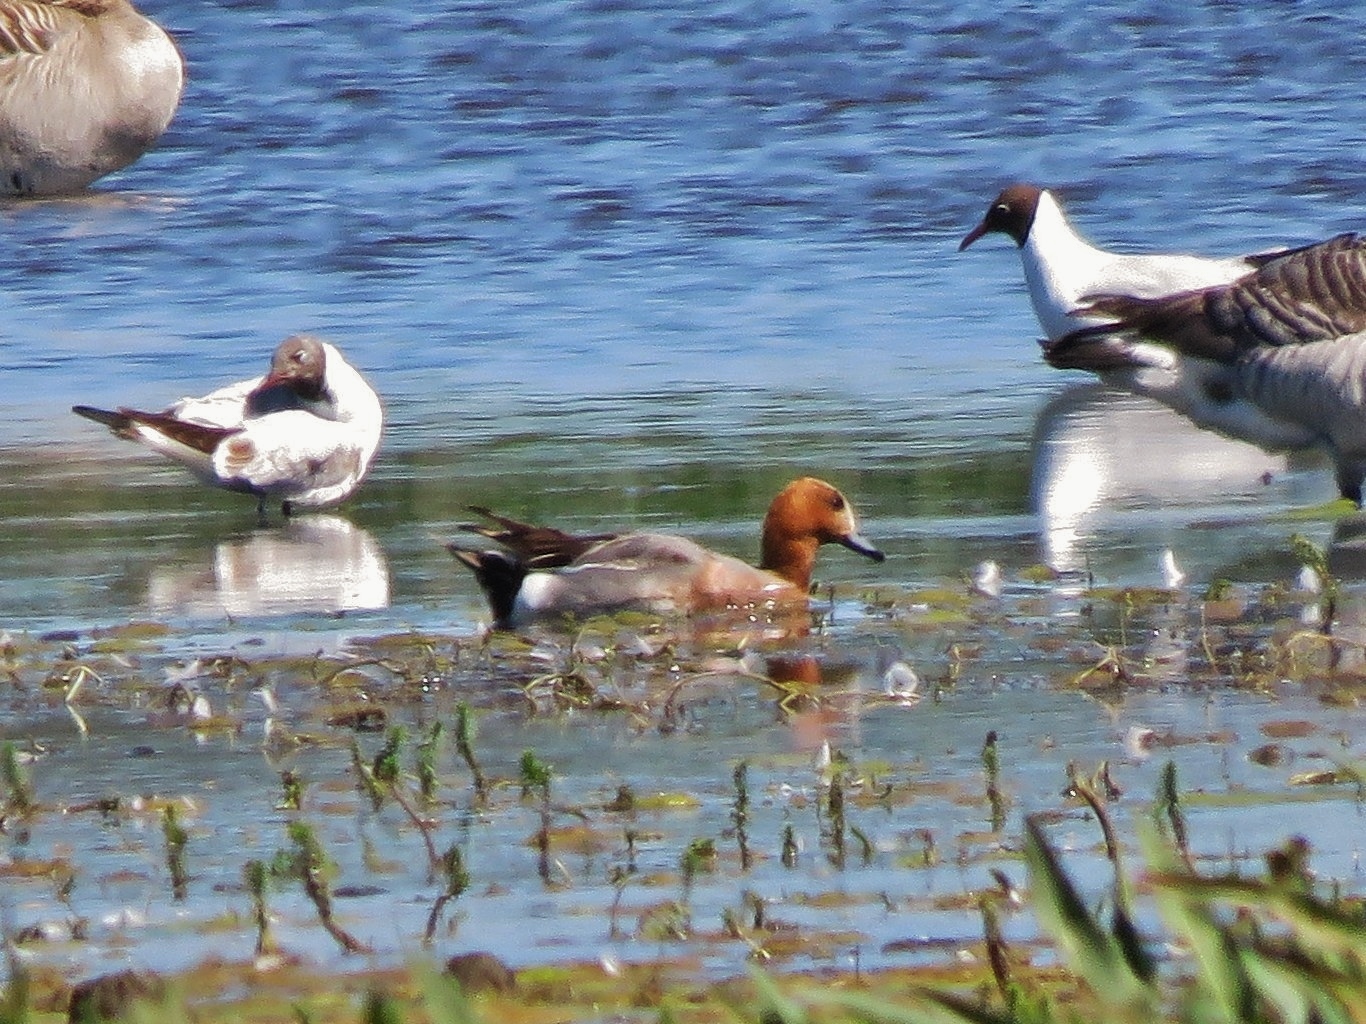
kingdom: Animalia
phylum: Chordata
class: Aves
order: Anseriformes
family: Anatidae
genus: Mareca
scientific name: Mareca penelope
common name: Eurasian wigeon
